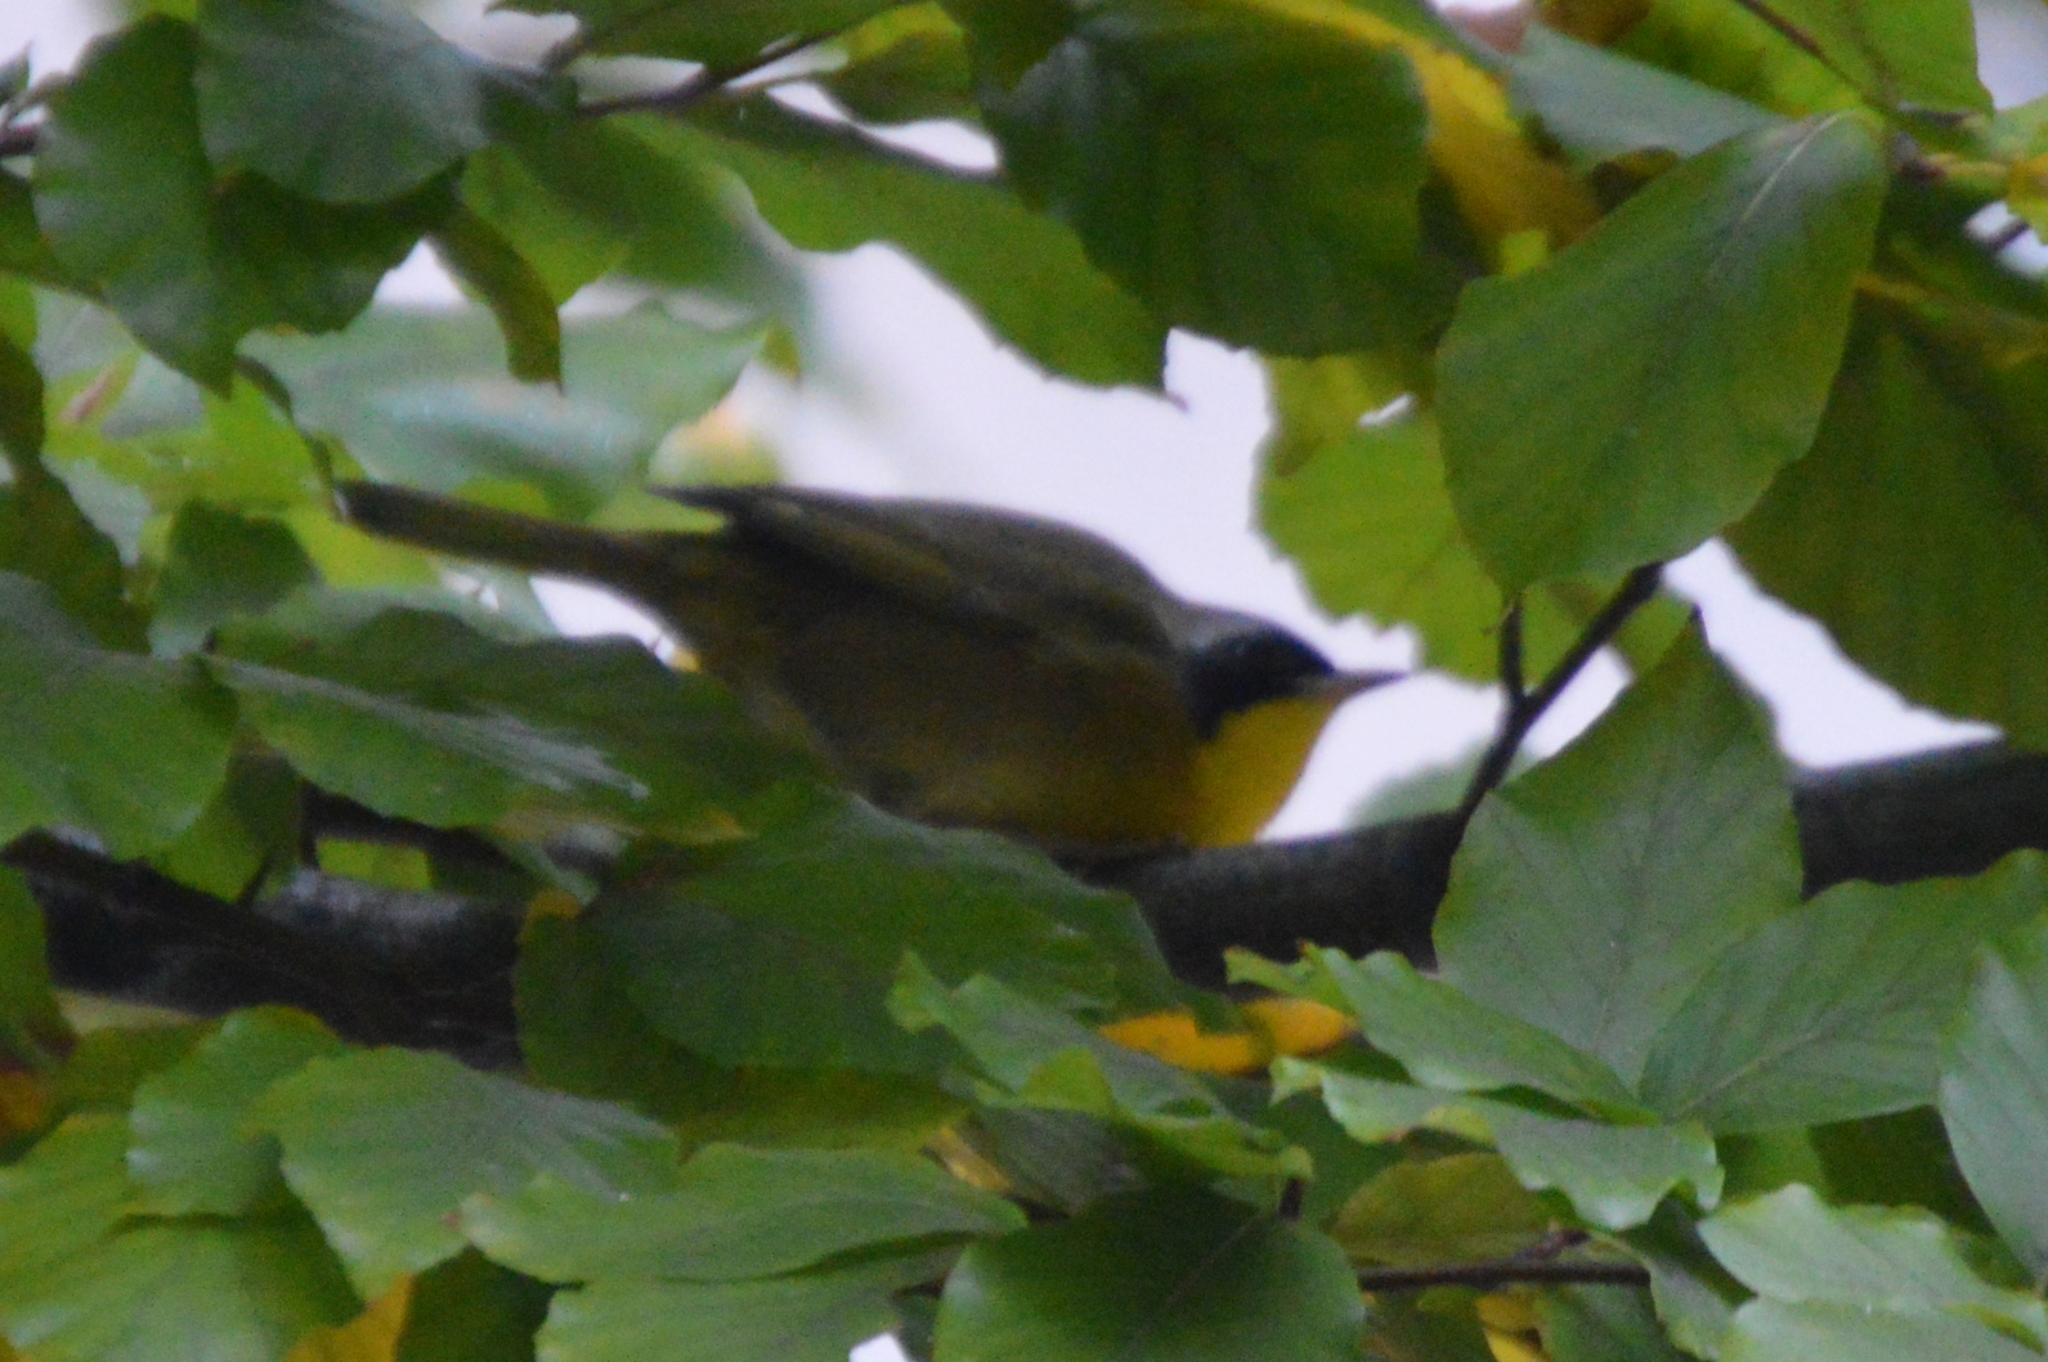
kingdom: Animalia
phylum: Chordata
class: Aves
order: Passeriformes
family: Parulidae
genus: Geothlypis
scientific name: Geothlypis trichas
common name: Common yellowthroat
